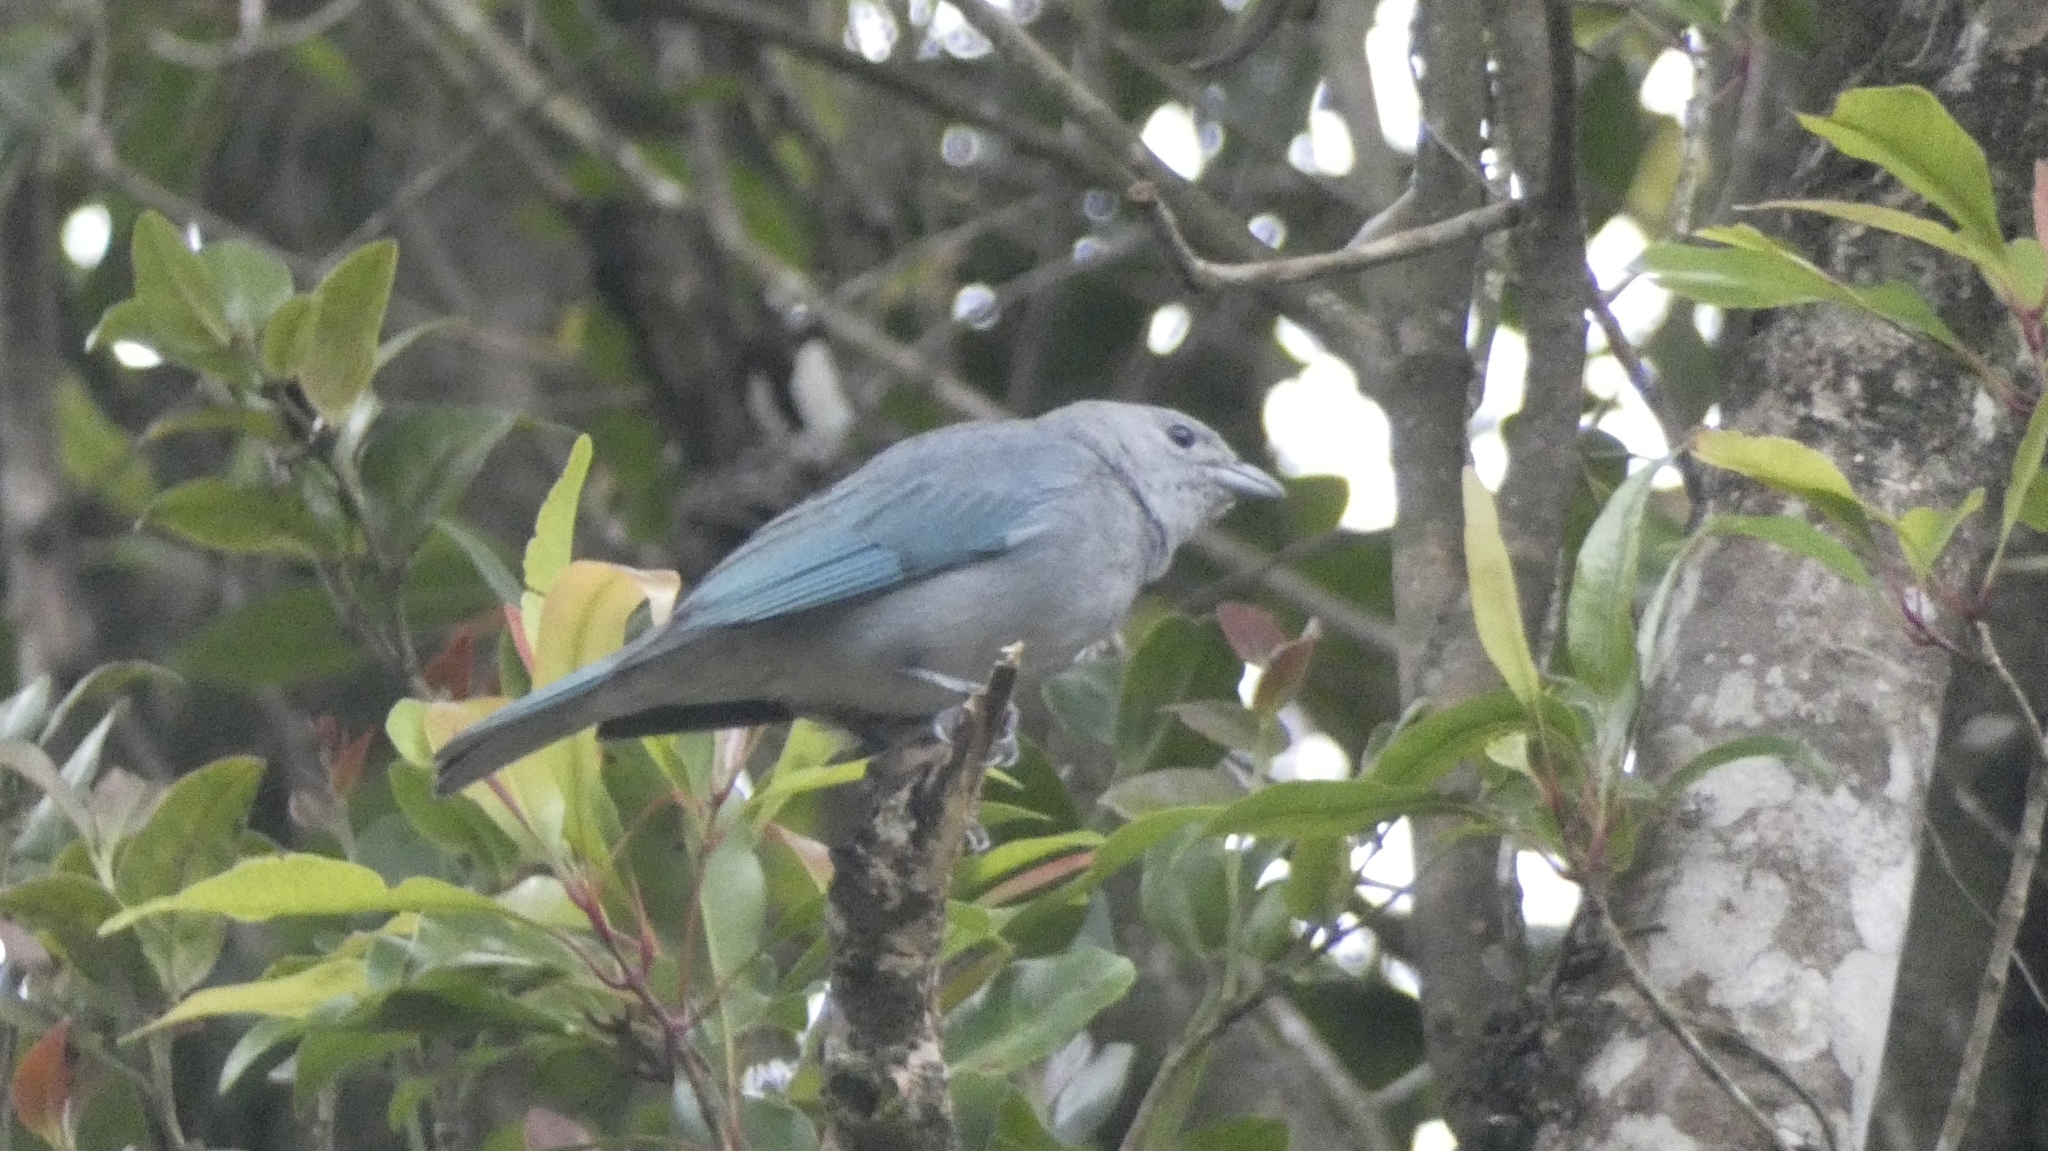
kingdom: Animalia
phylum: Chordata
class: Aves
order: Passeriformes
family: Thraupidae
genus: Thraupis
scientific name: Thraupis sayaca
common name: Sayaca tanager
